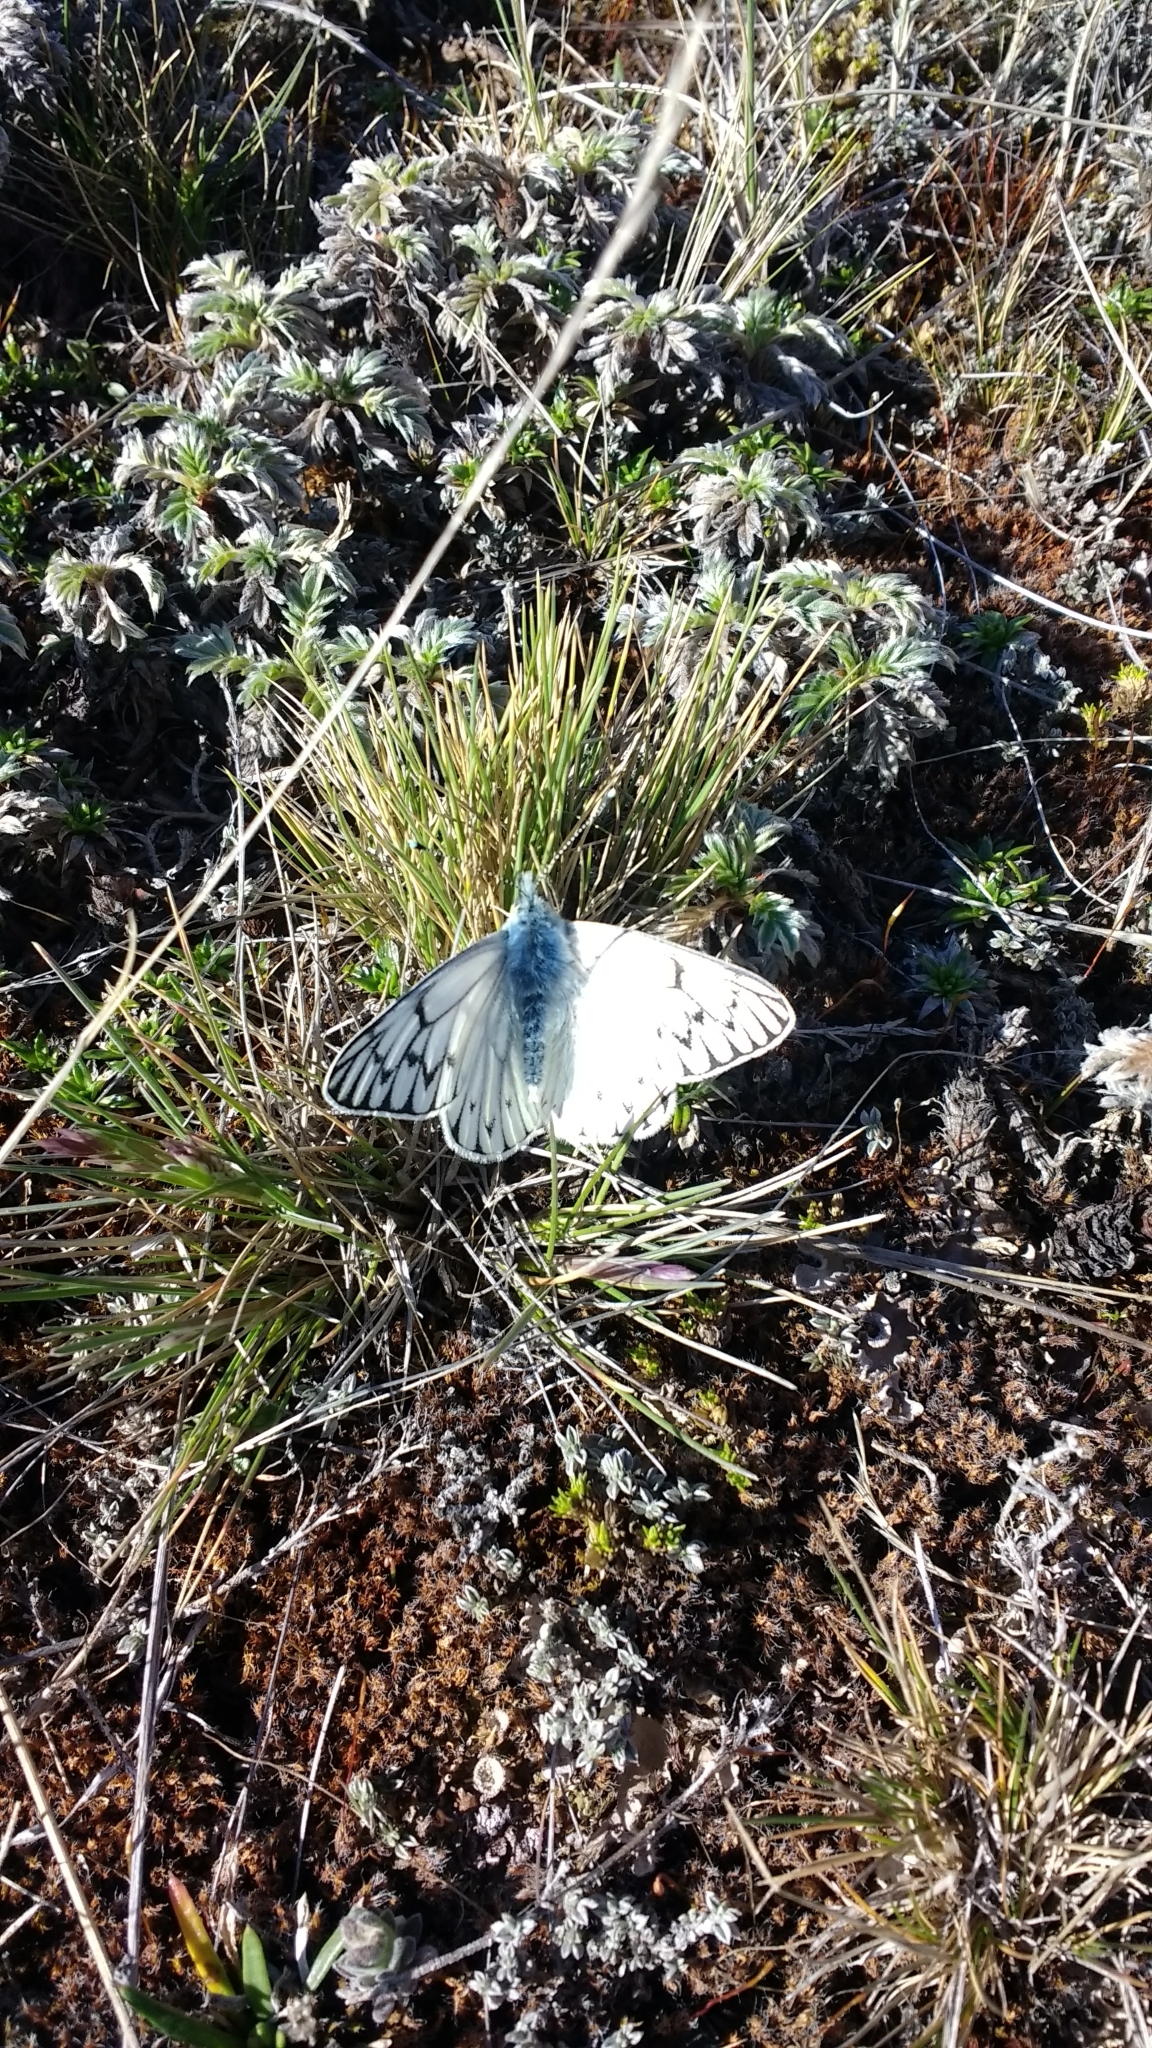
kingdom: Animalia
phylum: Arthropoda
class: Insecta
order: Lepidoptera
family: Pieridae
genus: Tatochila
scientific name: Tatochila theodice
